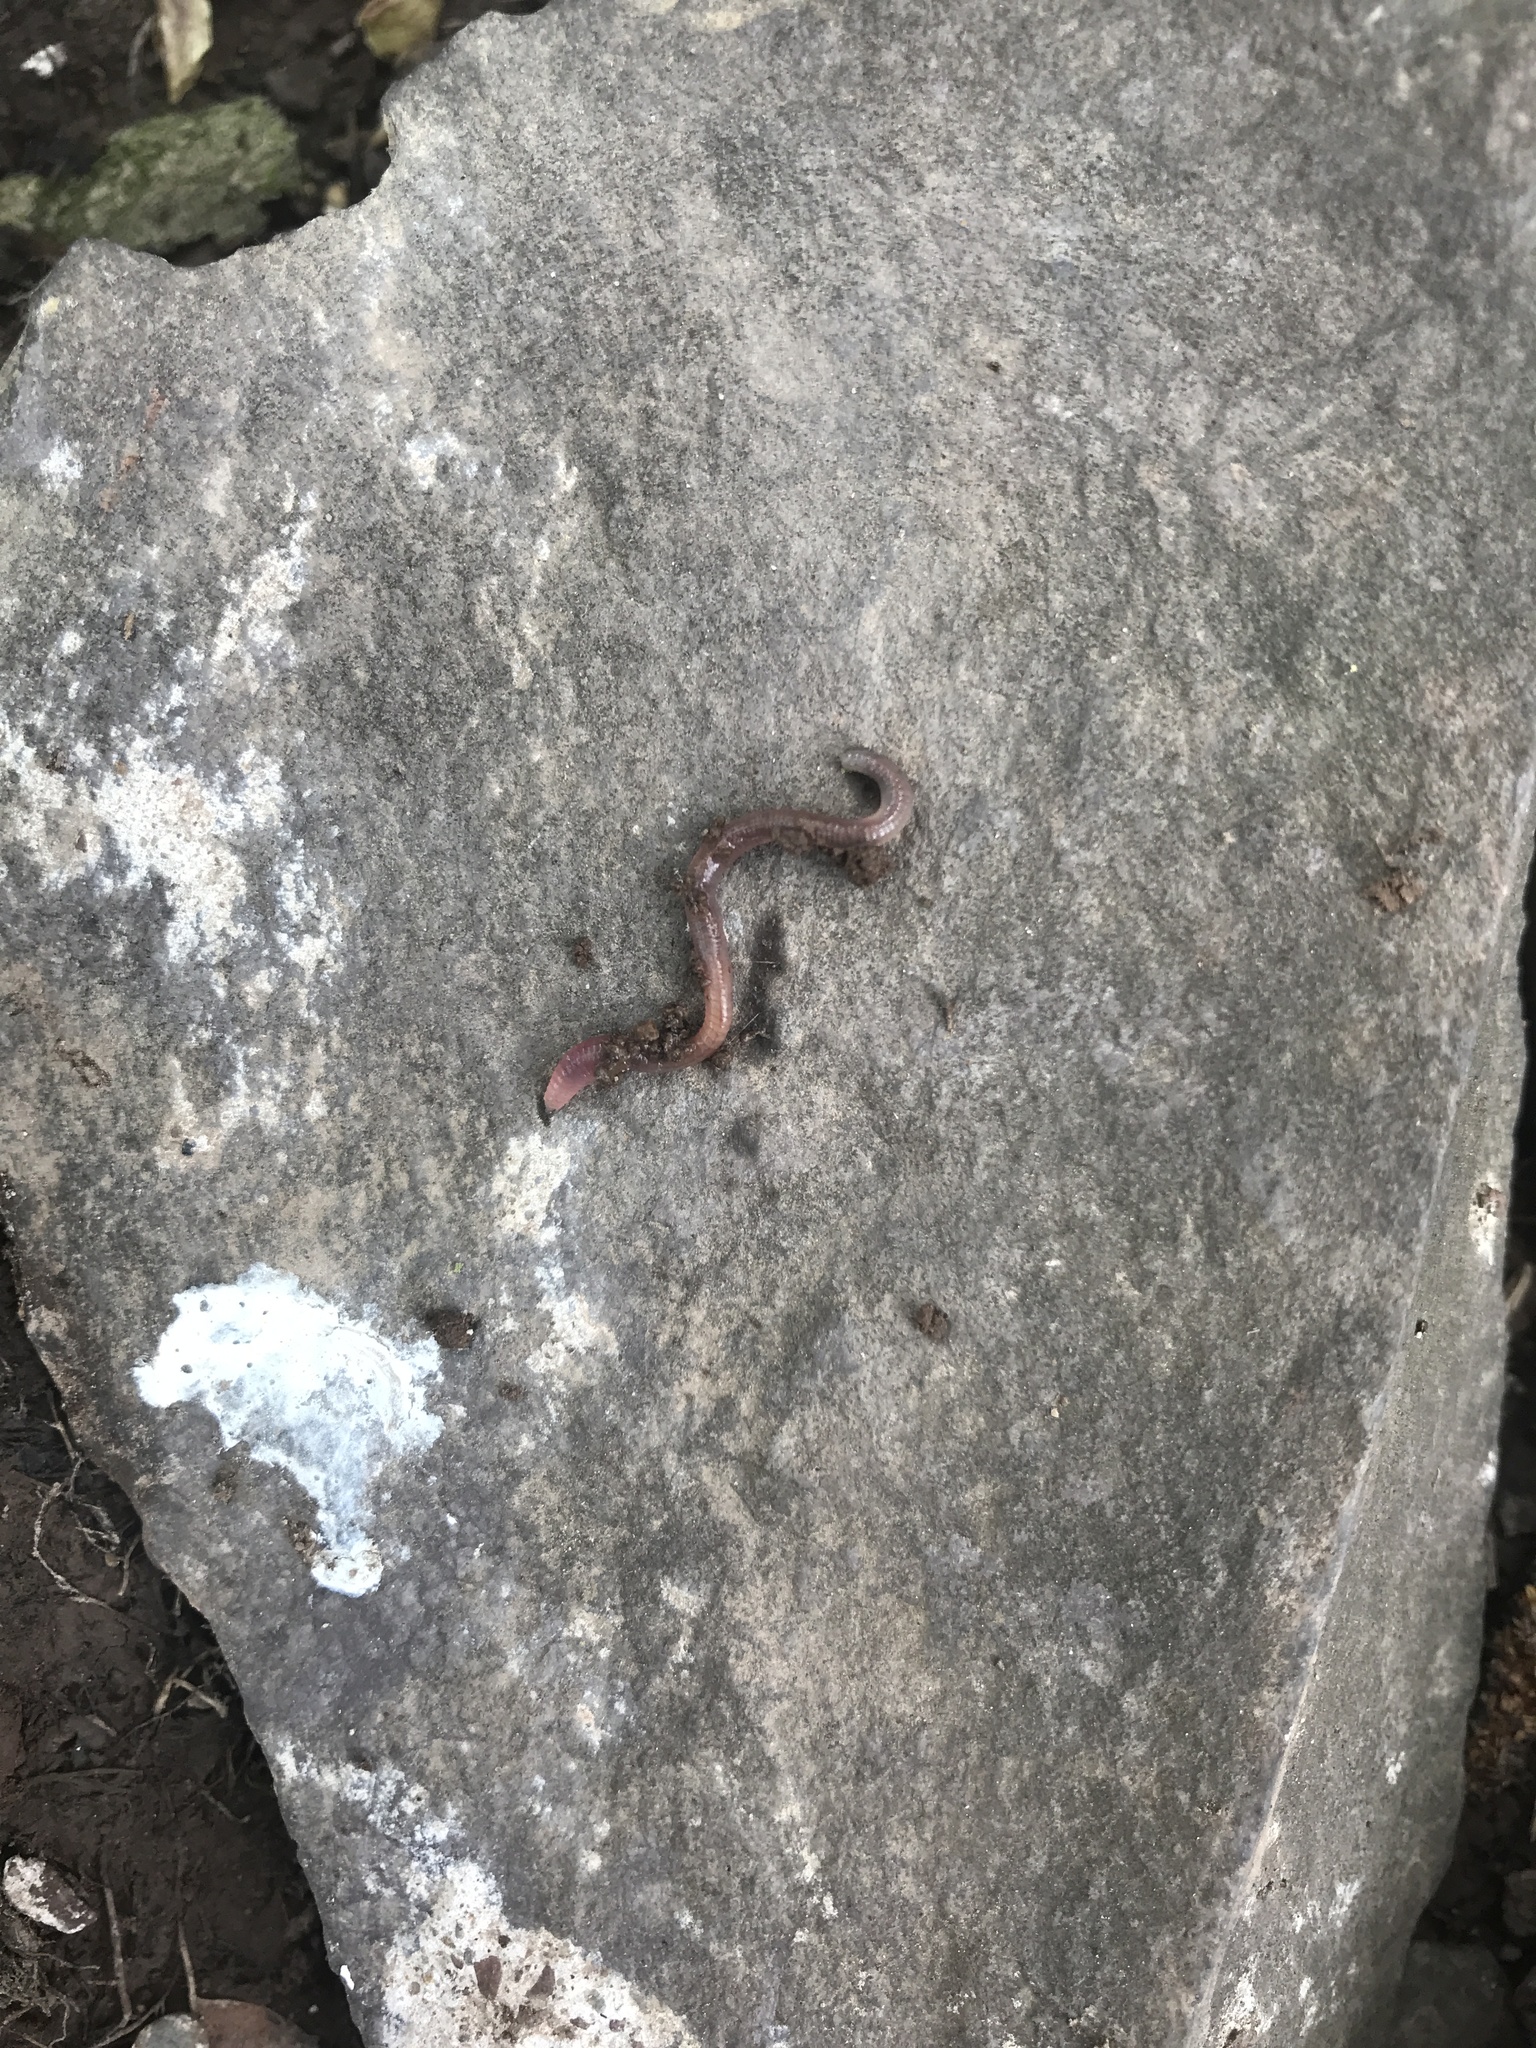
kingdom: Animalia
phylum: Annelida
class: Clitellata
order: Crassiclitellata
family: Lumbricidae
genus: Lumbricus
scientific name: Lumbricus terrestris
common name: Common earthworm
